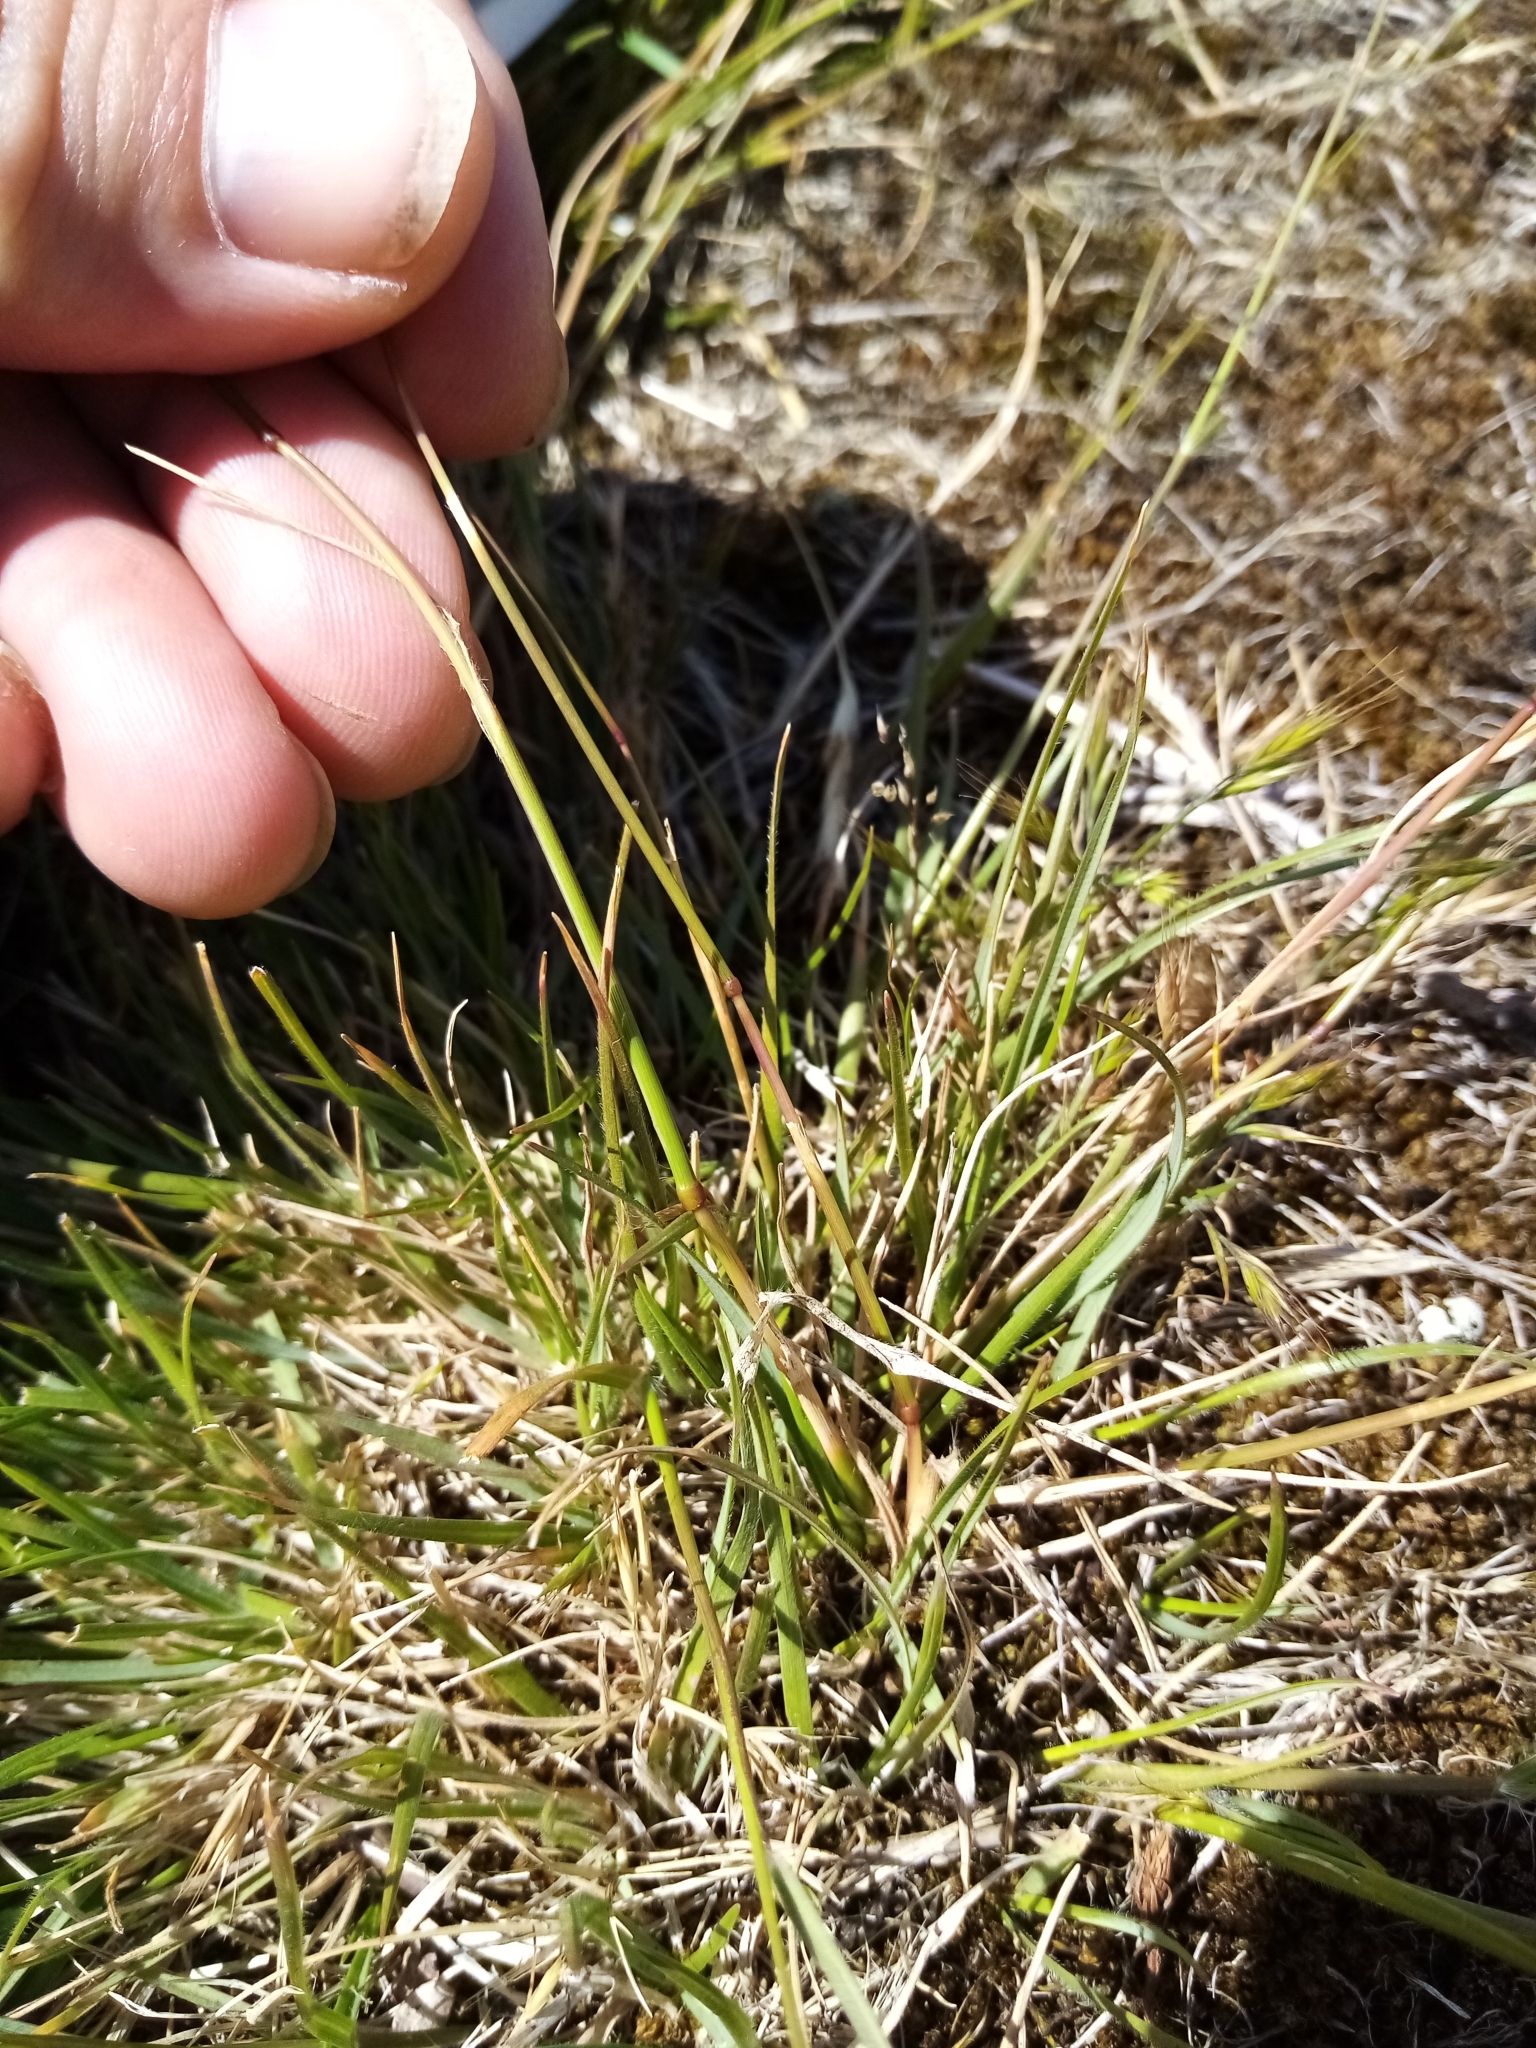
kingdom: Plantae
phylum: Tracheophyta
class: Liliopsida
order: Poales
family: Poaceae
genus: Rytidosperma
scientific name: Rytidosperma clavatum
